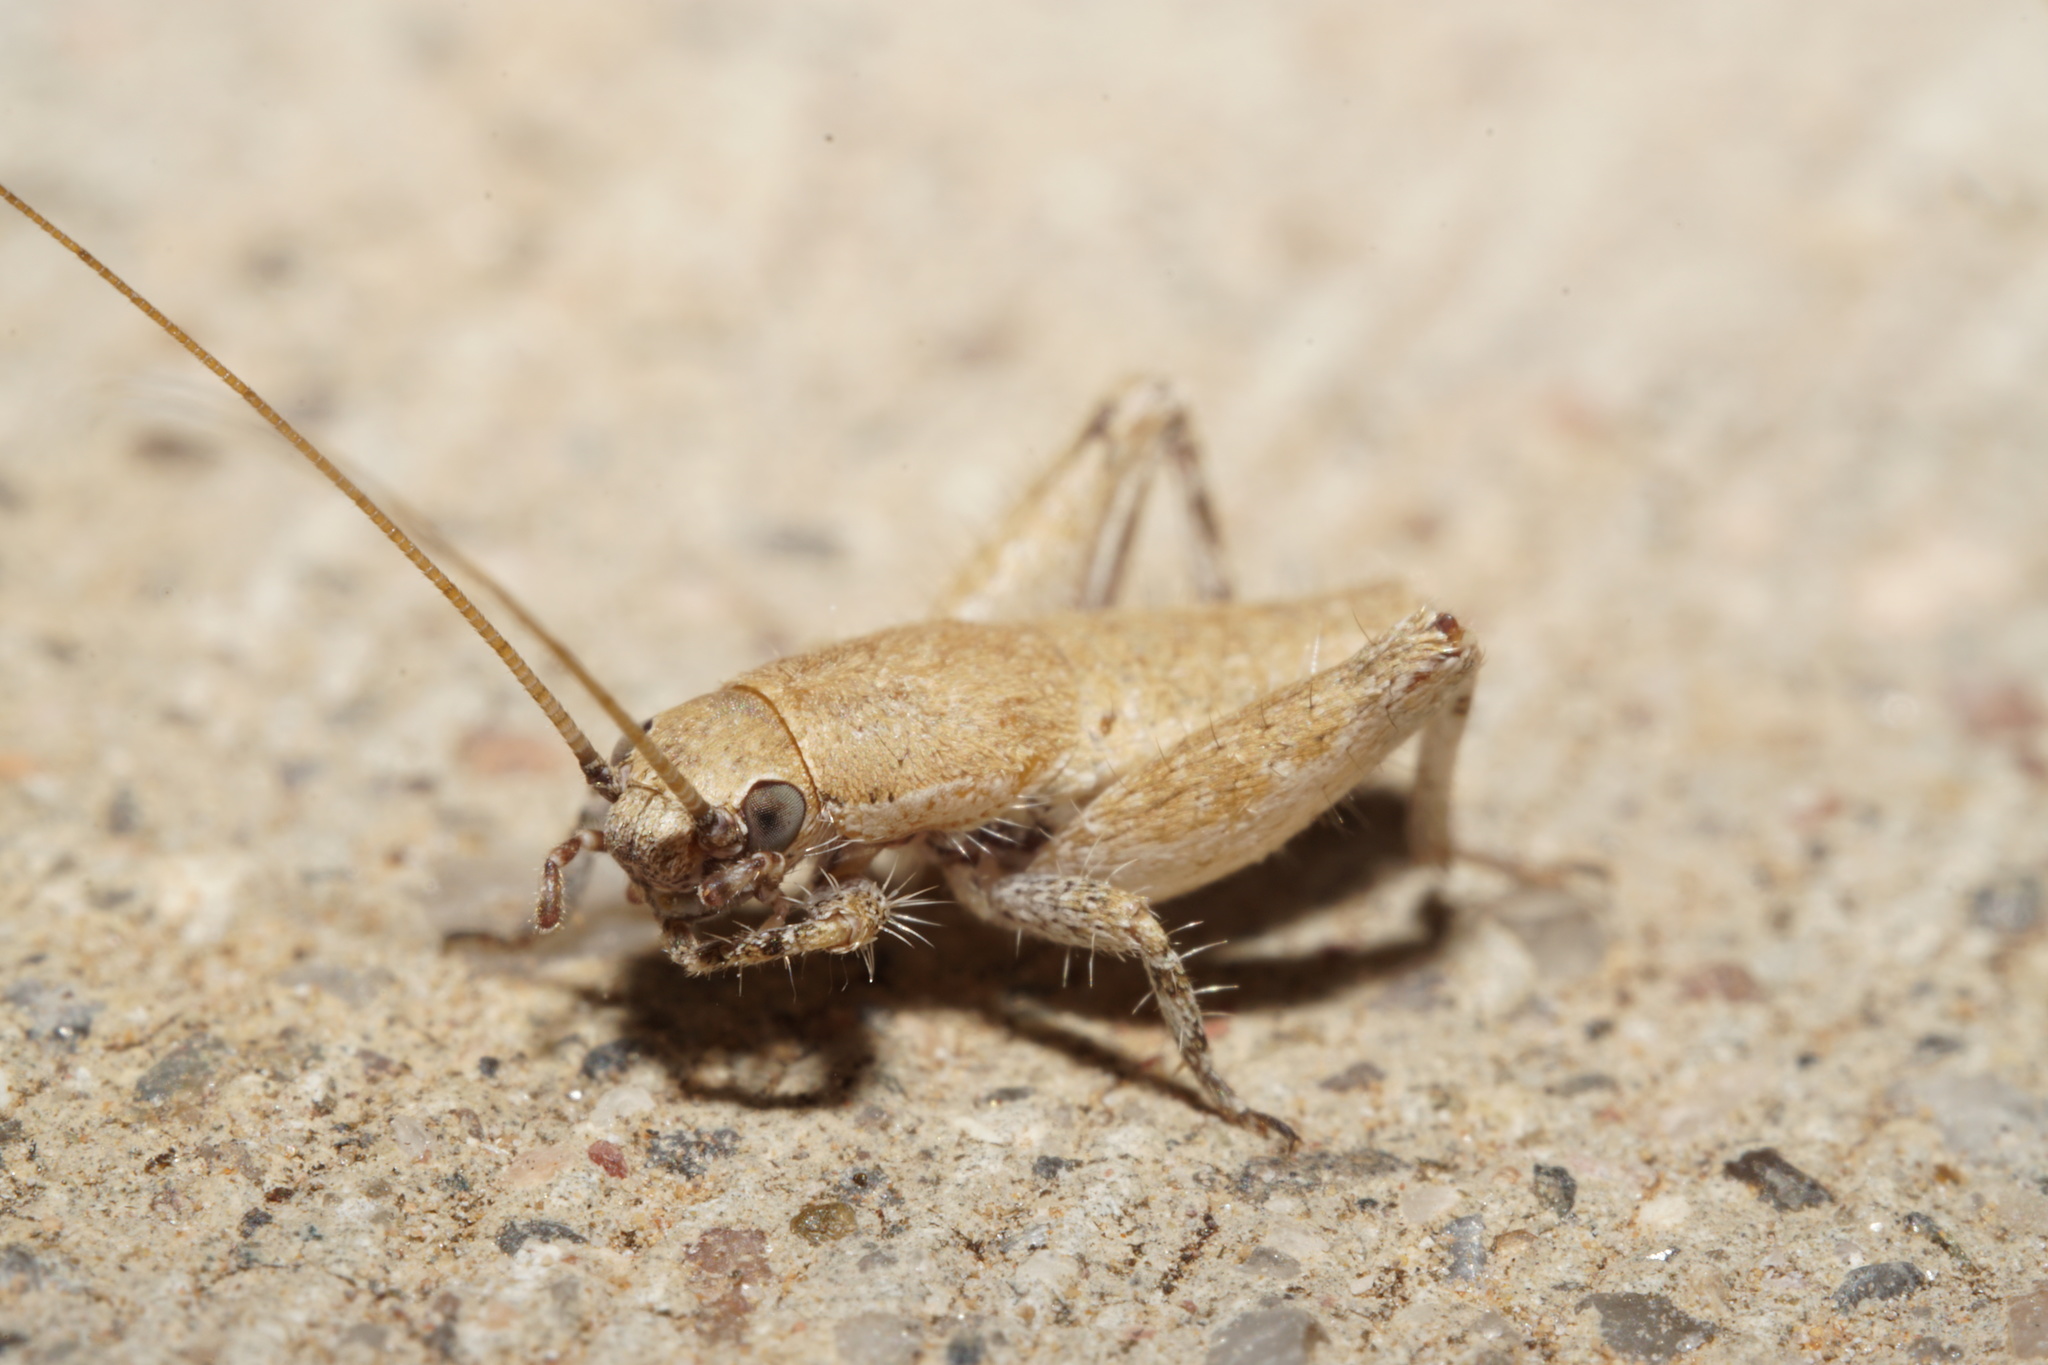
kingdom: Animalia
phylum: Arthropoda
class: Insecta
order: Orthoptera
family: Mogoplistidae
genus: Cycloptilum
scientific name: Cycloptilum comprehendens
